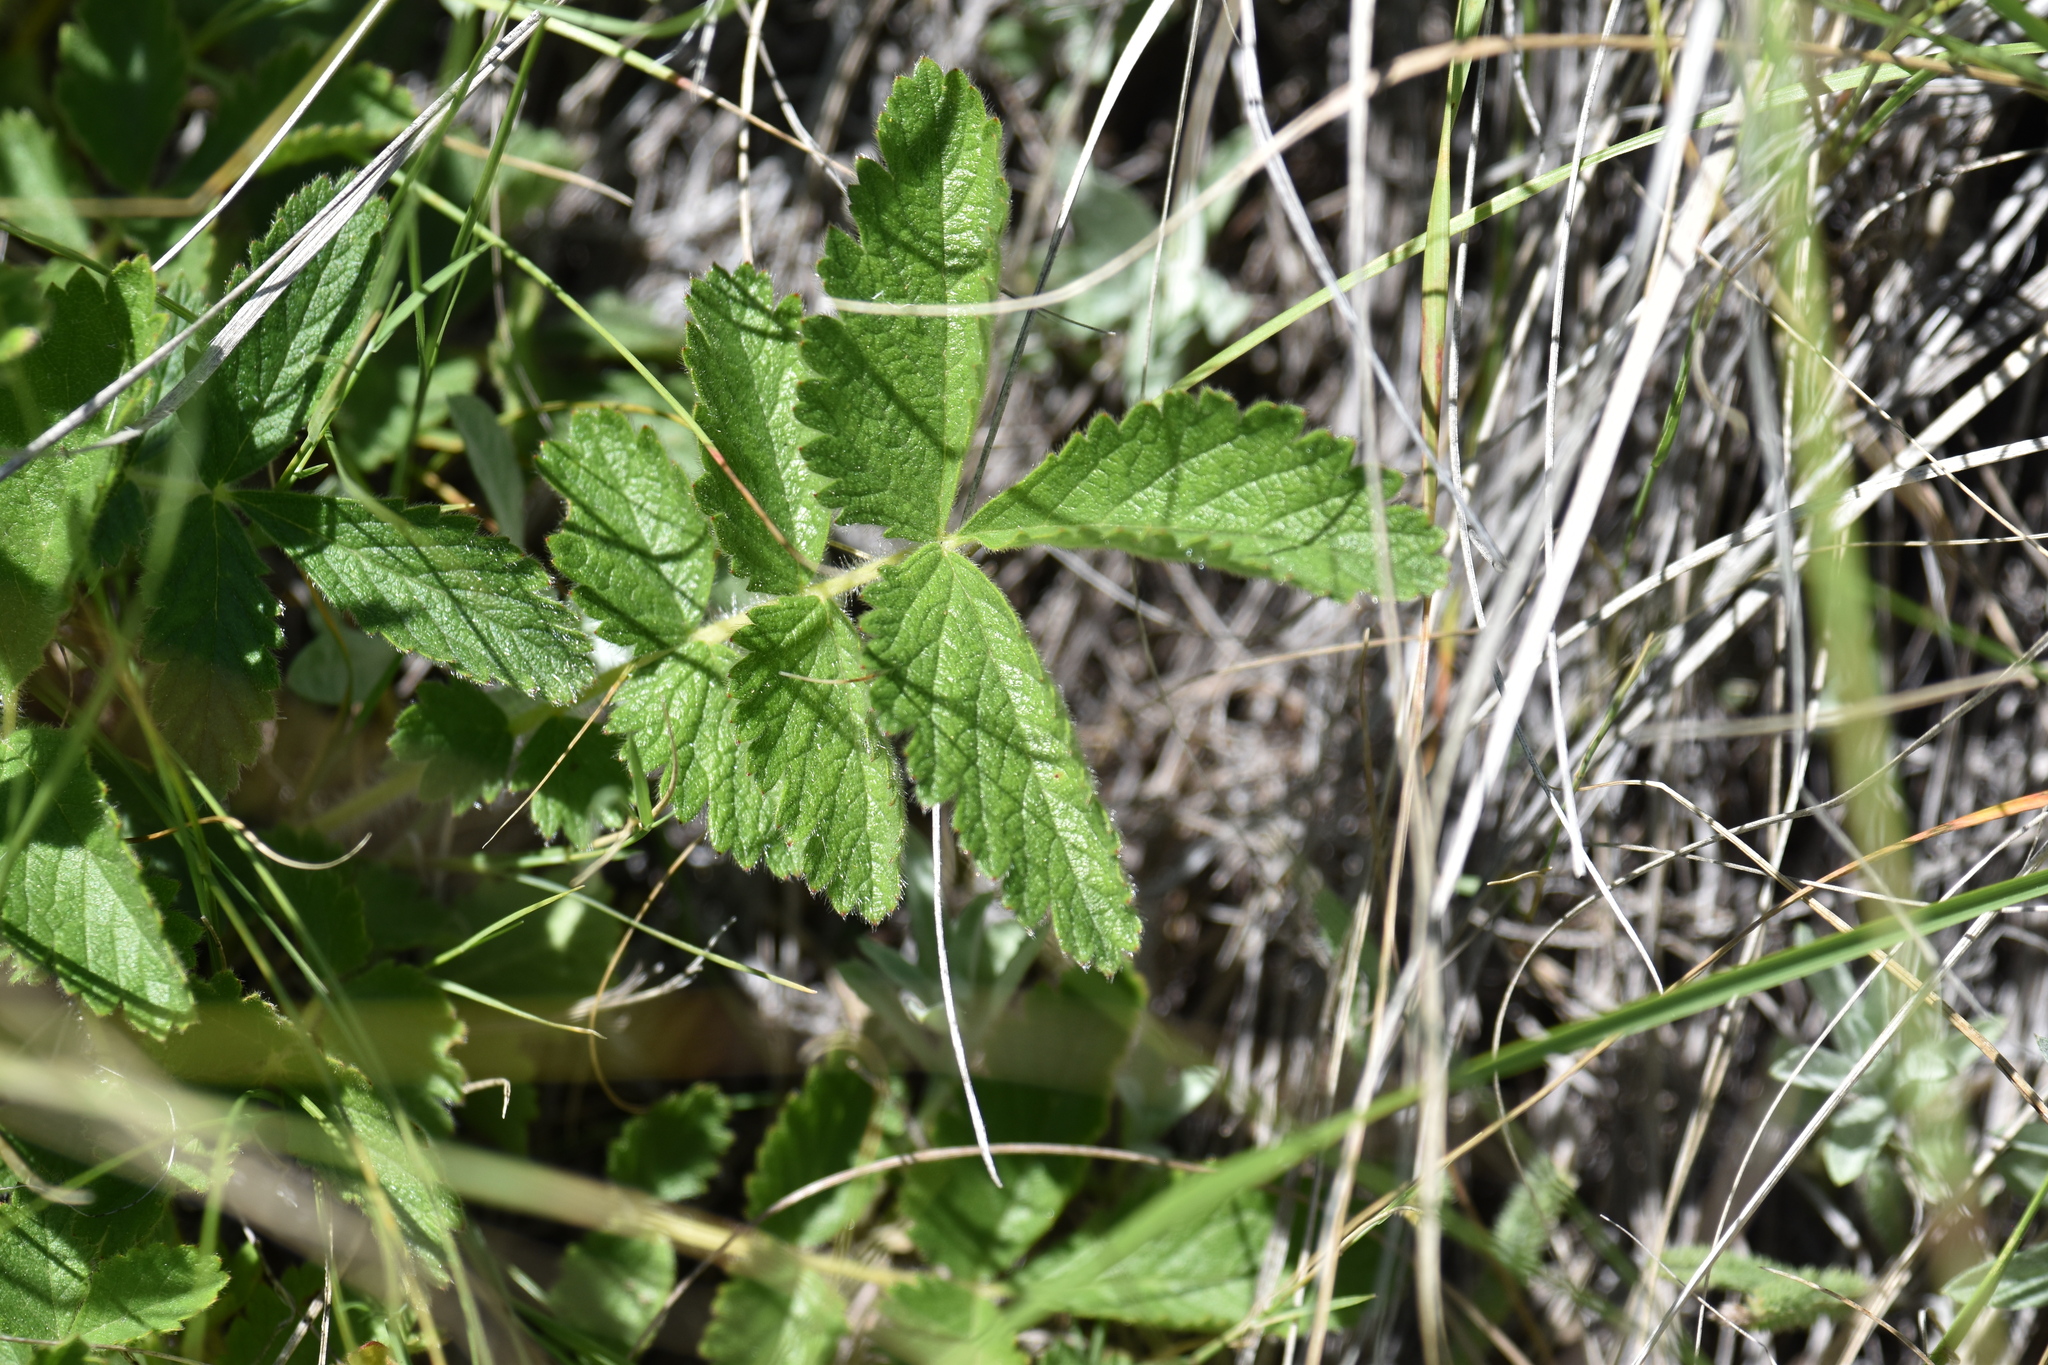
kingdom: Plantae
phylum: Tracheophyta
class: Magnoliopsida
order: Rosales
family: Rosaceae
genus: Drymocallis
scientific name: Drymocallis arguta
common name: Tall cinquefoil
